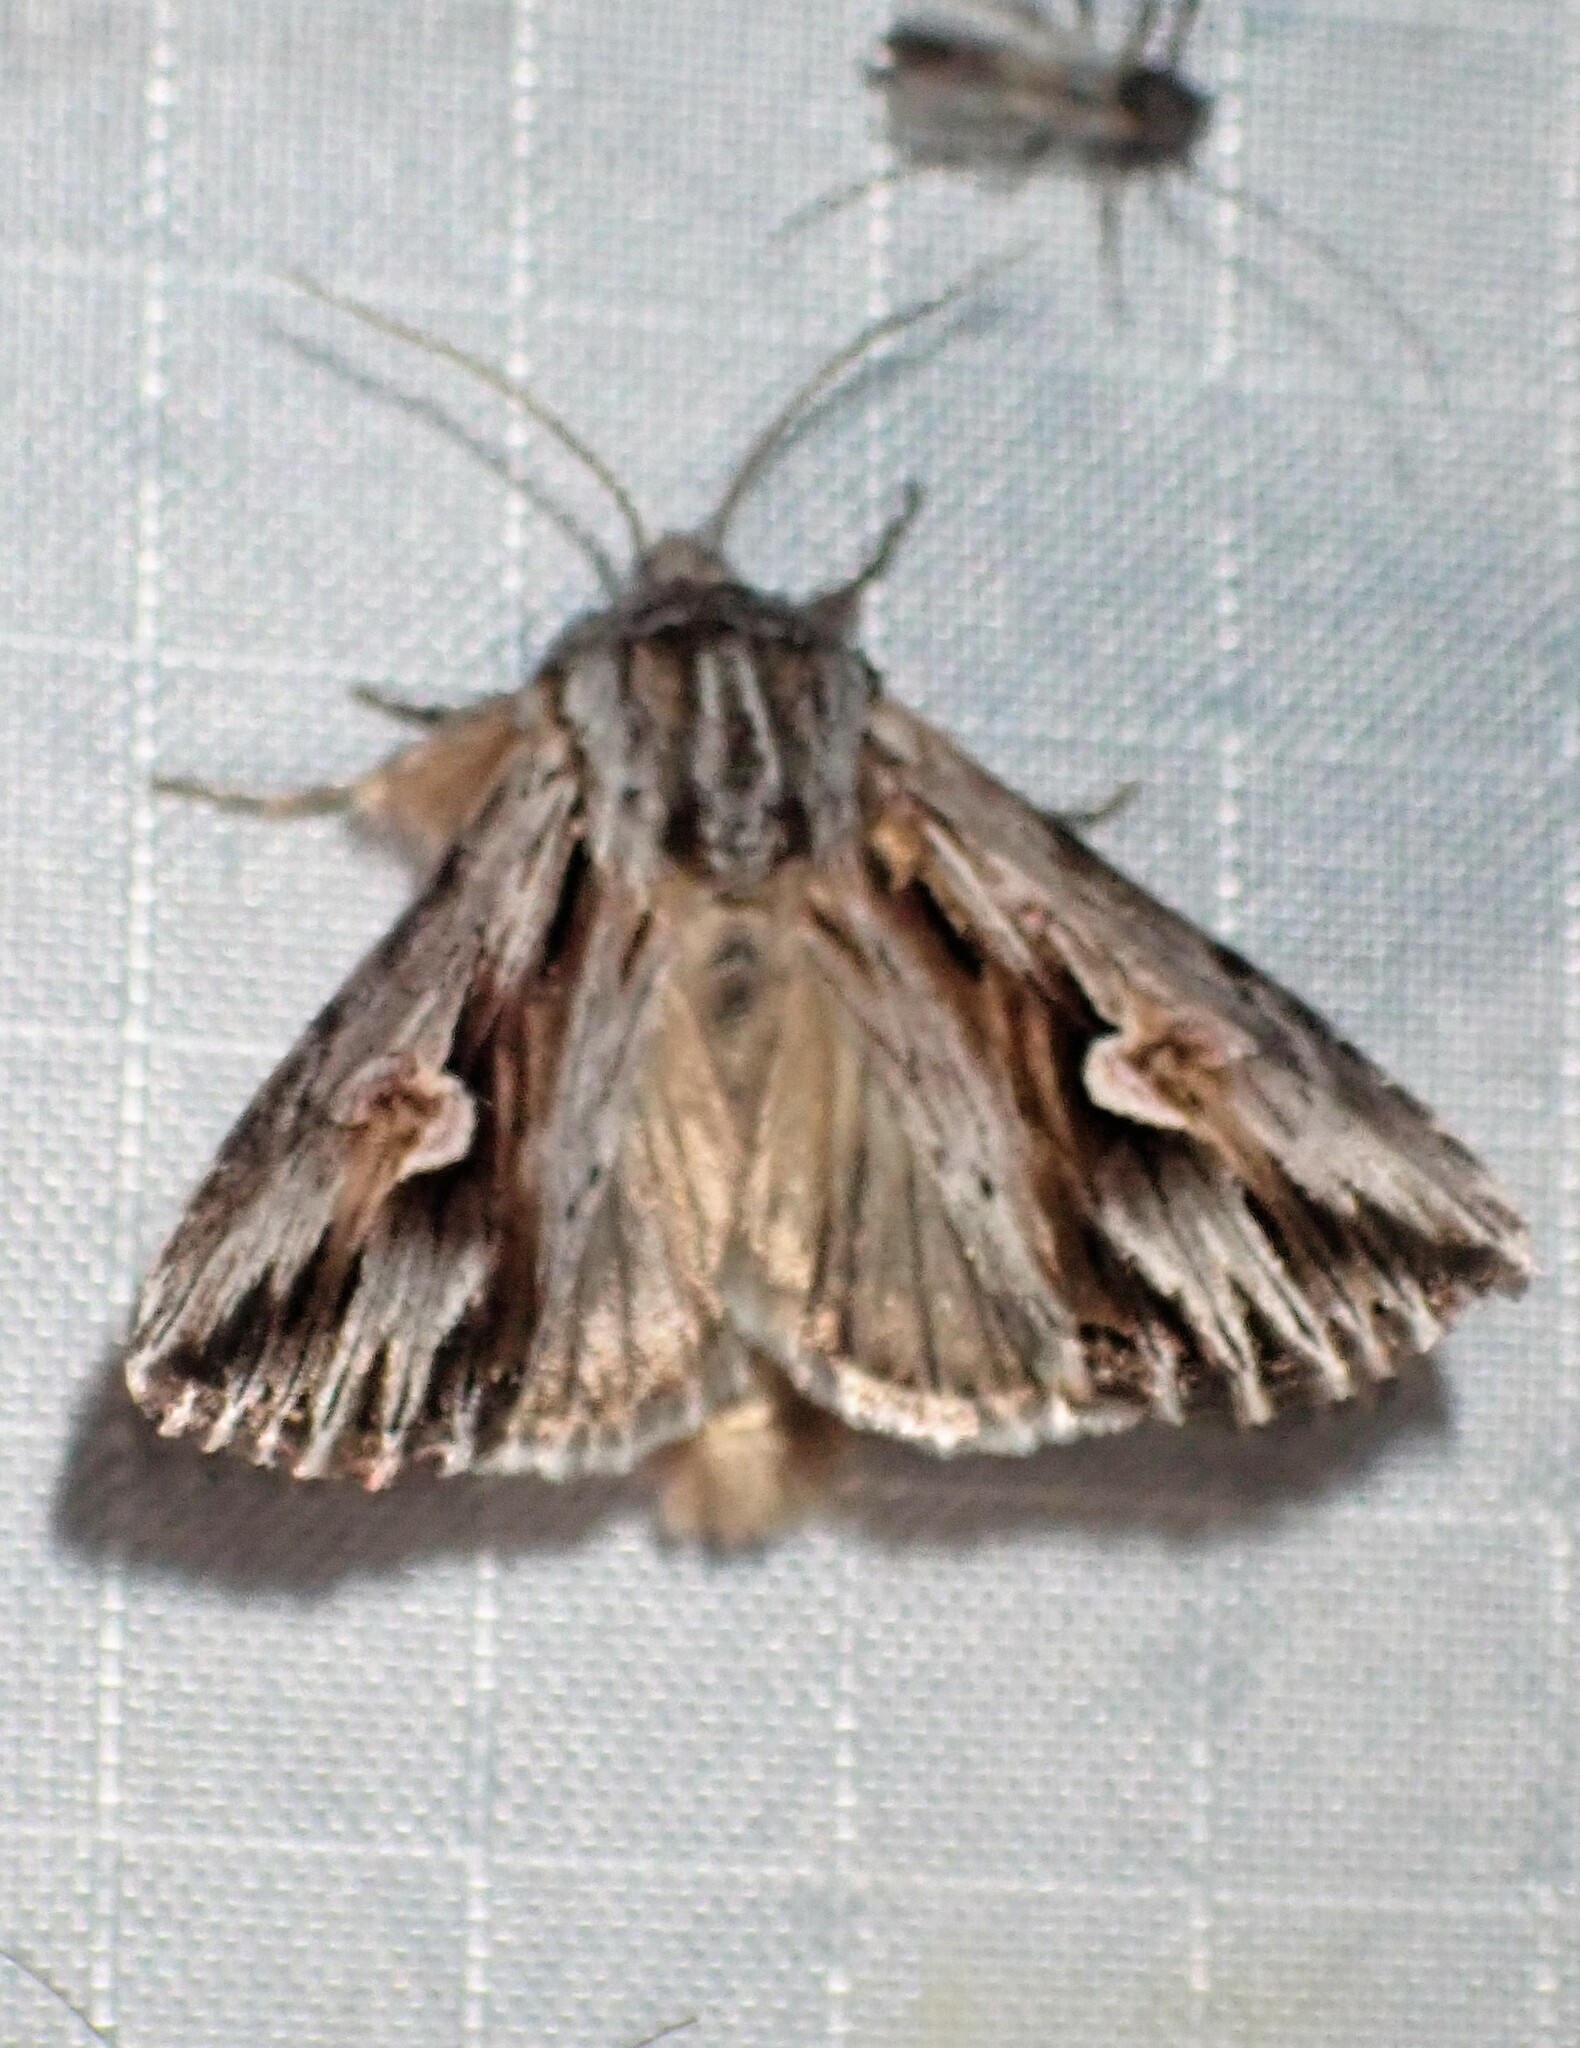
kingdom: Animalia
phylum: Arthropoda
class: Insecta
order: Lepidoptera
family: Noctuidae
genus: Nedra
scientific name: Nedra ramosula
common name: Gray half-spot
